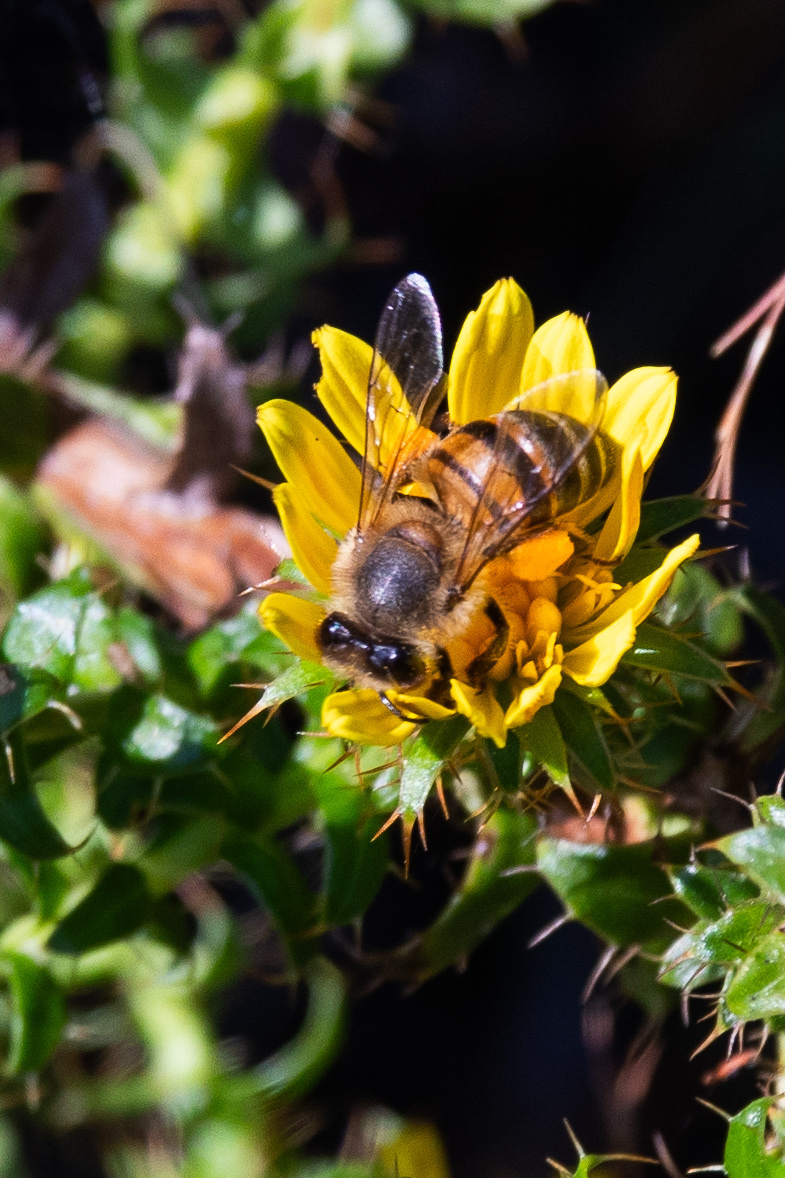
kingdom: Animalia
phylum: Arthropoda
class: Insecta
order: Hymenoptera
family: Apidae
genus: Apis
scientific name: Apis mellifera
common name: Honey bee
